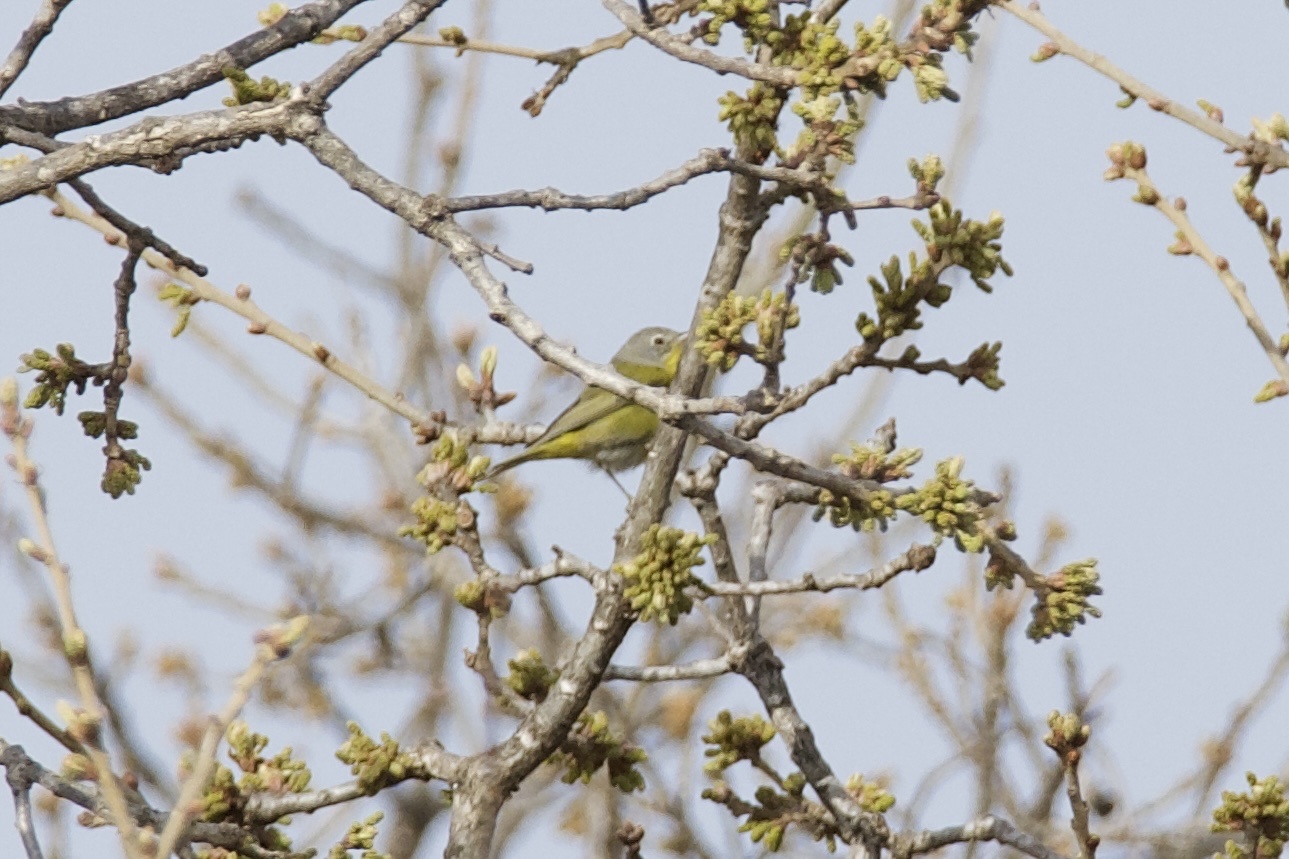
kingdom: Animalia
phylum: Chordata
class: Aves
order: Passeriformes
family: Parulidae
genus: Leiothlypis
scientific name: Leiothlypis ruficapilla
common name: Nashville warbler
